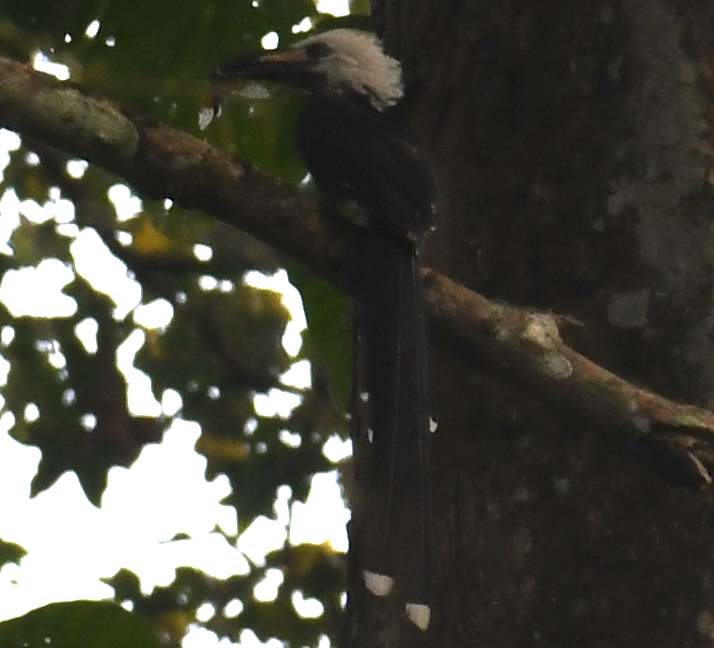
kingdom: Animalia
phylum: Chordata
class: Aves
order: Bucerotiformes
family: Bucerotidae
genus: Horizocerus
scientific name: Horizocerus albocristatus
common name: White-crested hornbill
